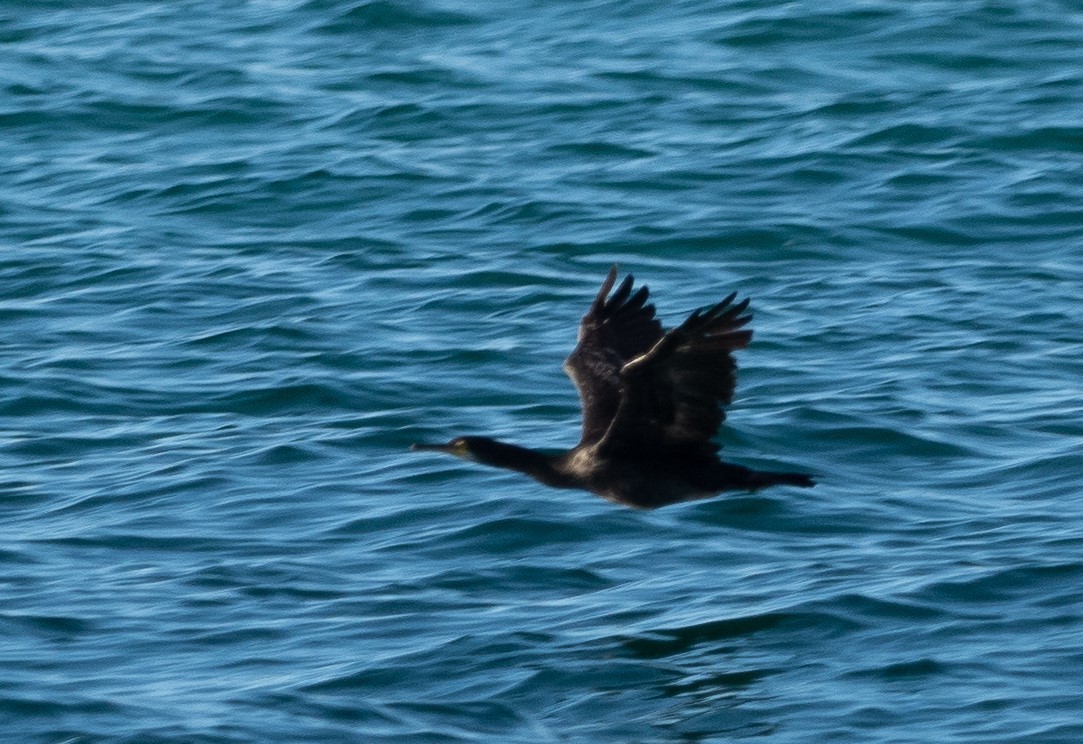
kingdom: Animalia
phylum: Chordata
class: Aves
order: Suliformes
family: Phalacrocoracidae
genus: Phalacrocorax
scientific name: Phalacrocorax aristotelis
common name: European shag
